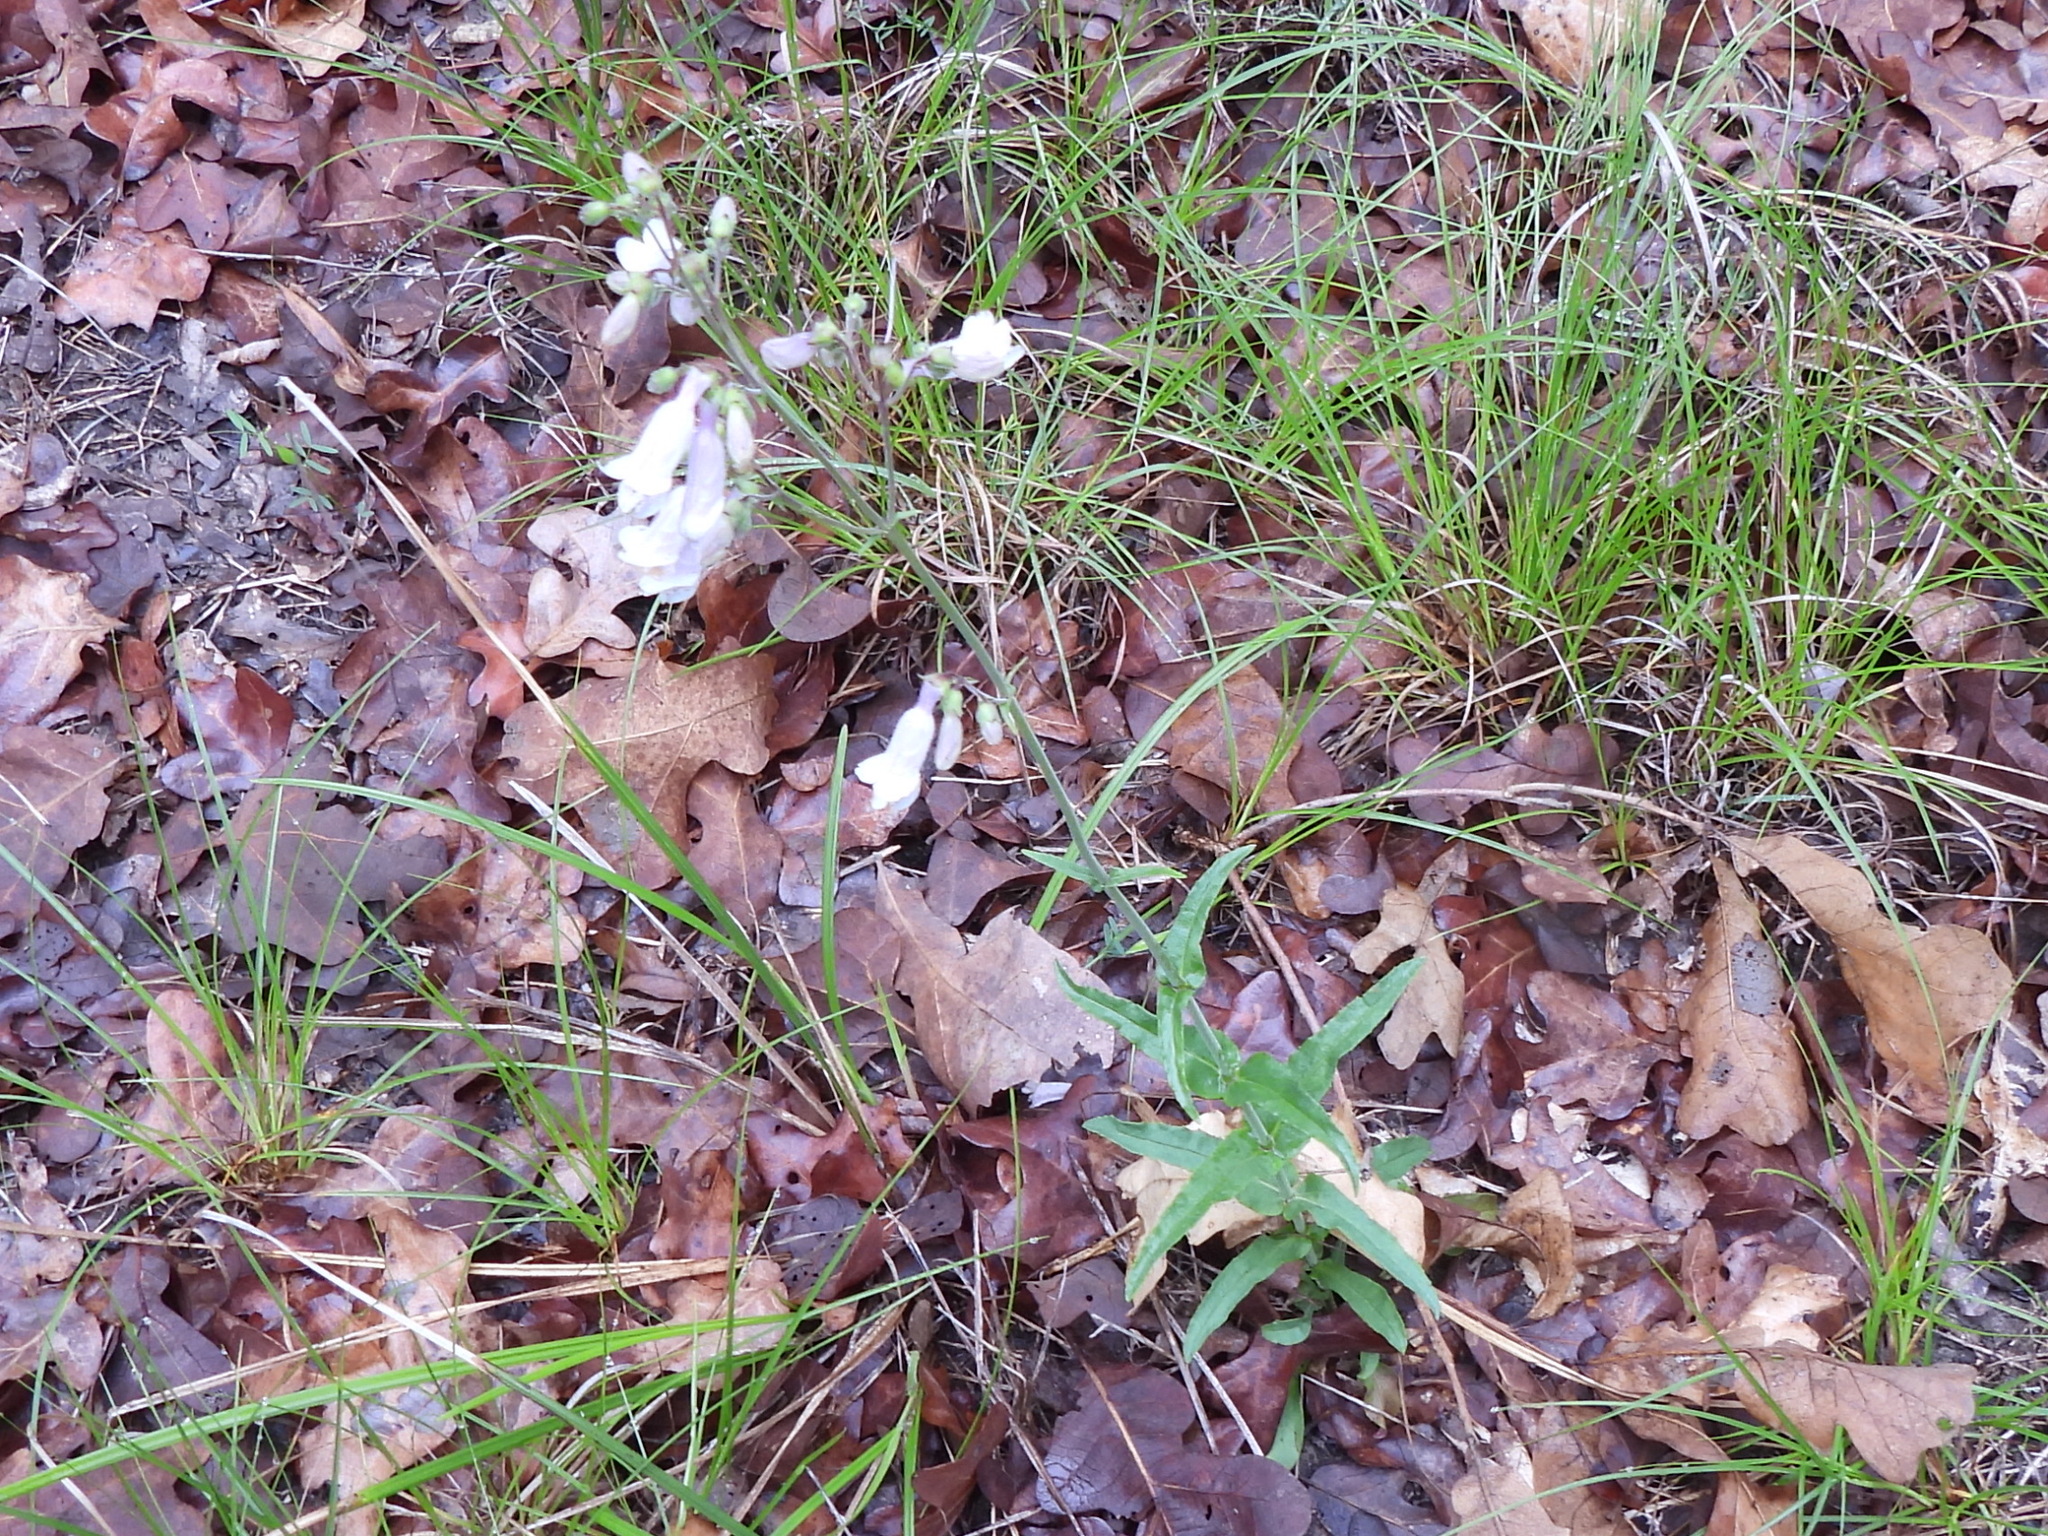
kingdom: Plantae
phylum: Tracheophyta
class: Magnoliopsida
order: Lamiales
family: Plantaginaceae
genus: Penstemon
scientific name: Penstemon laxiflorus
